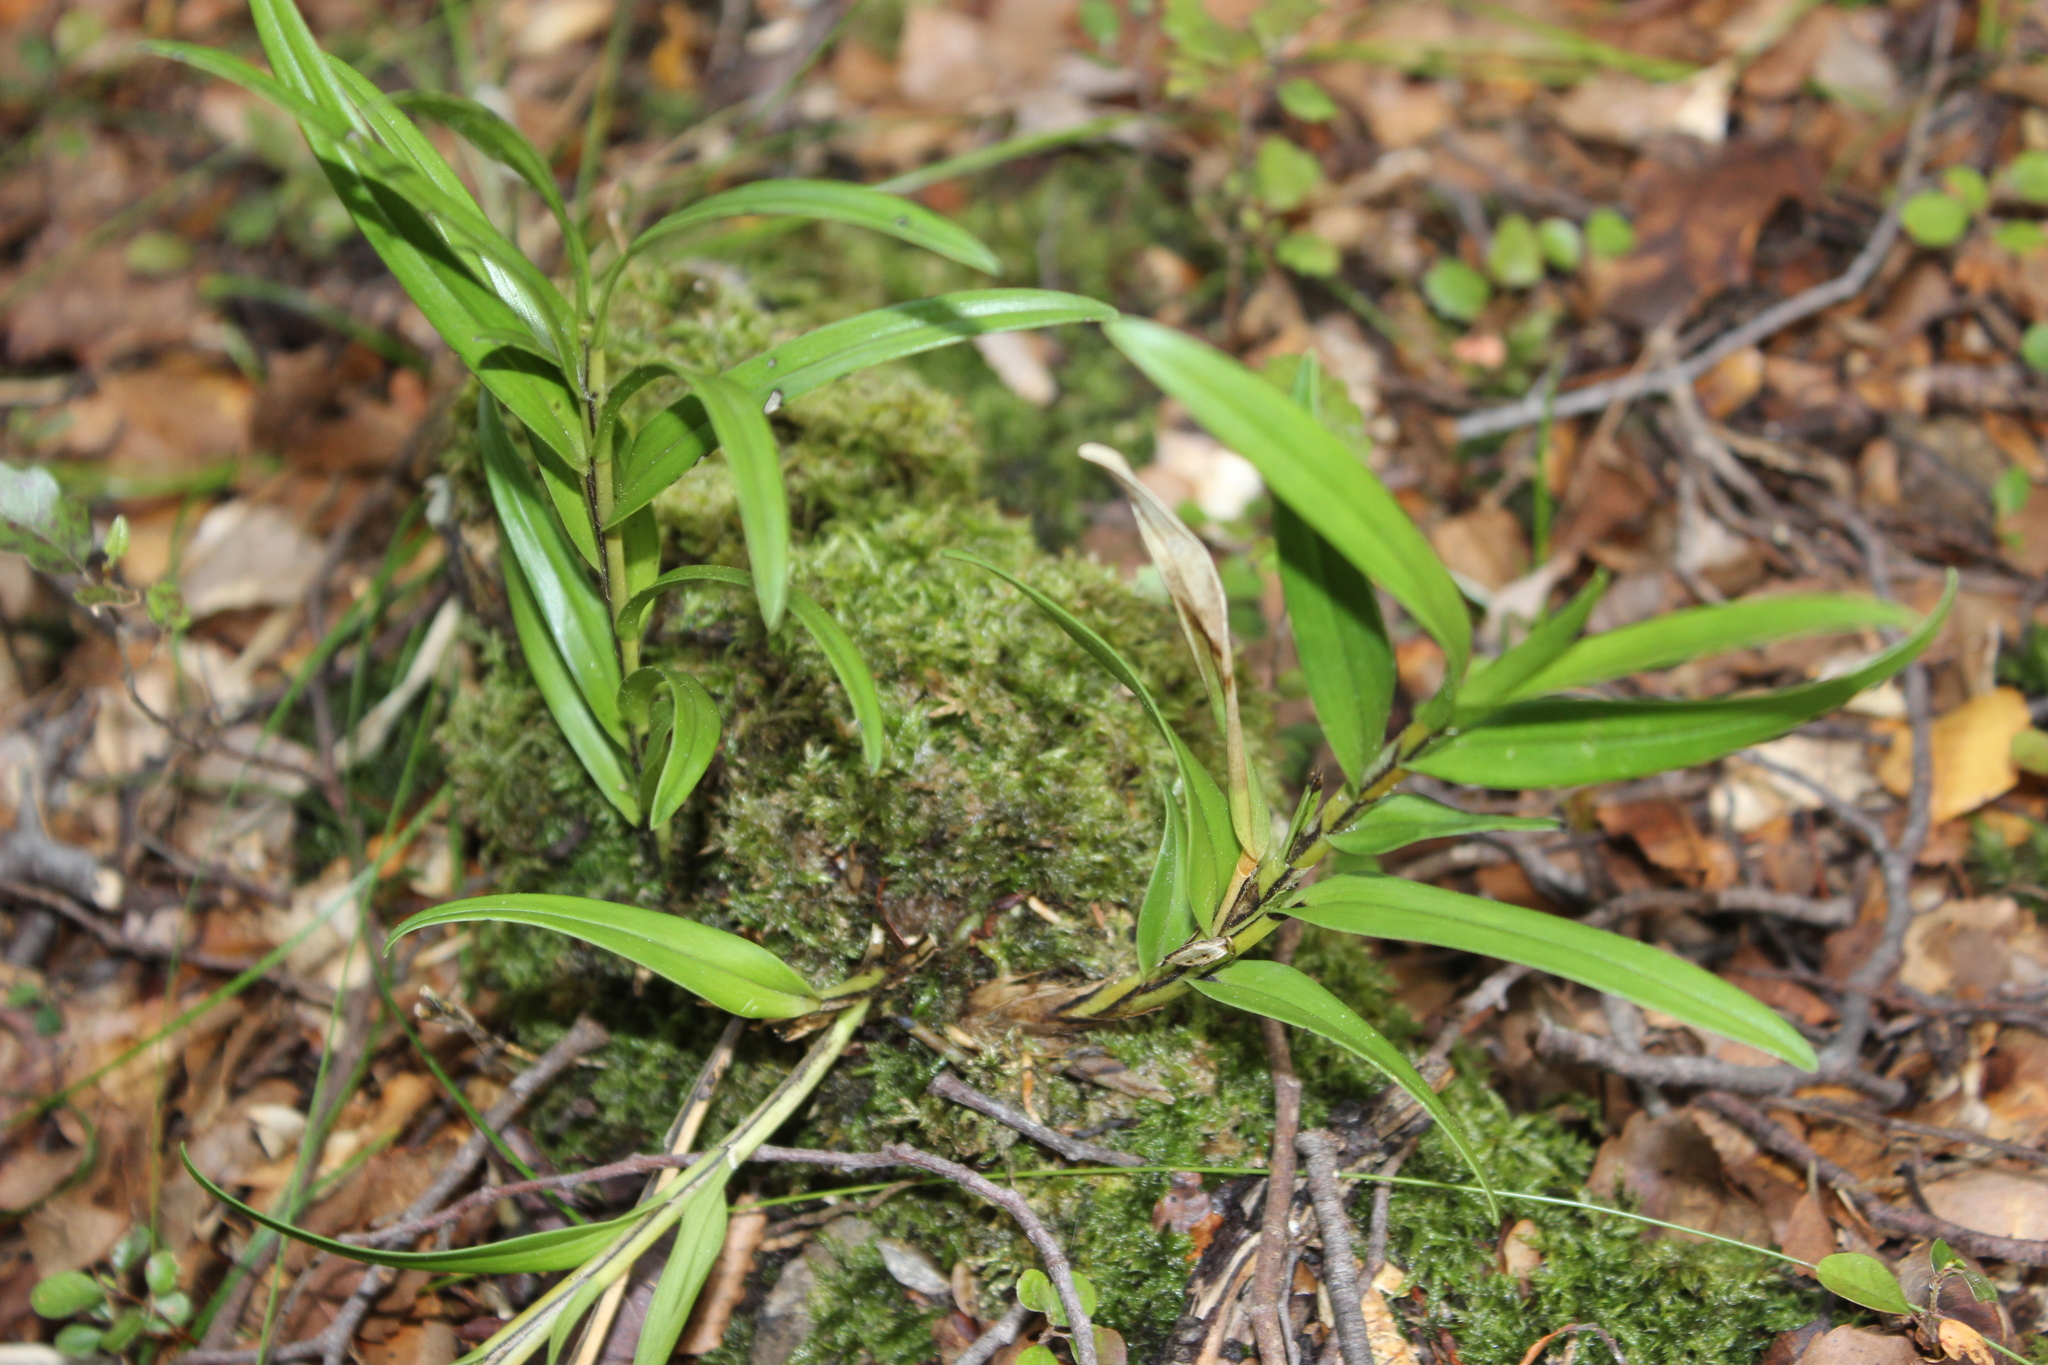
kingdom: Plantae
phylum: Tracheophyta
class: Liliopsida
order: Asparagales
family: Orchidaceae
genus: Earina
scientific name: Earina autumnalis
